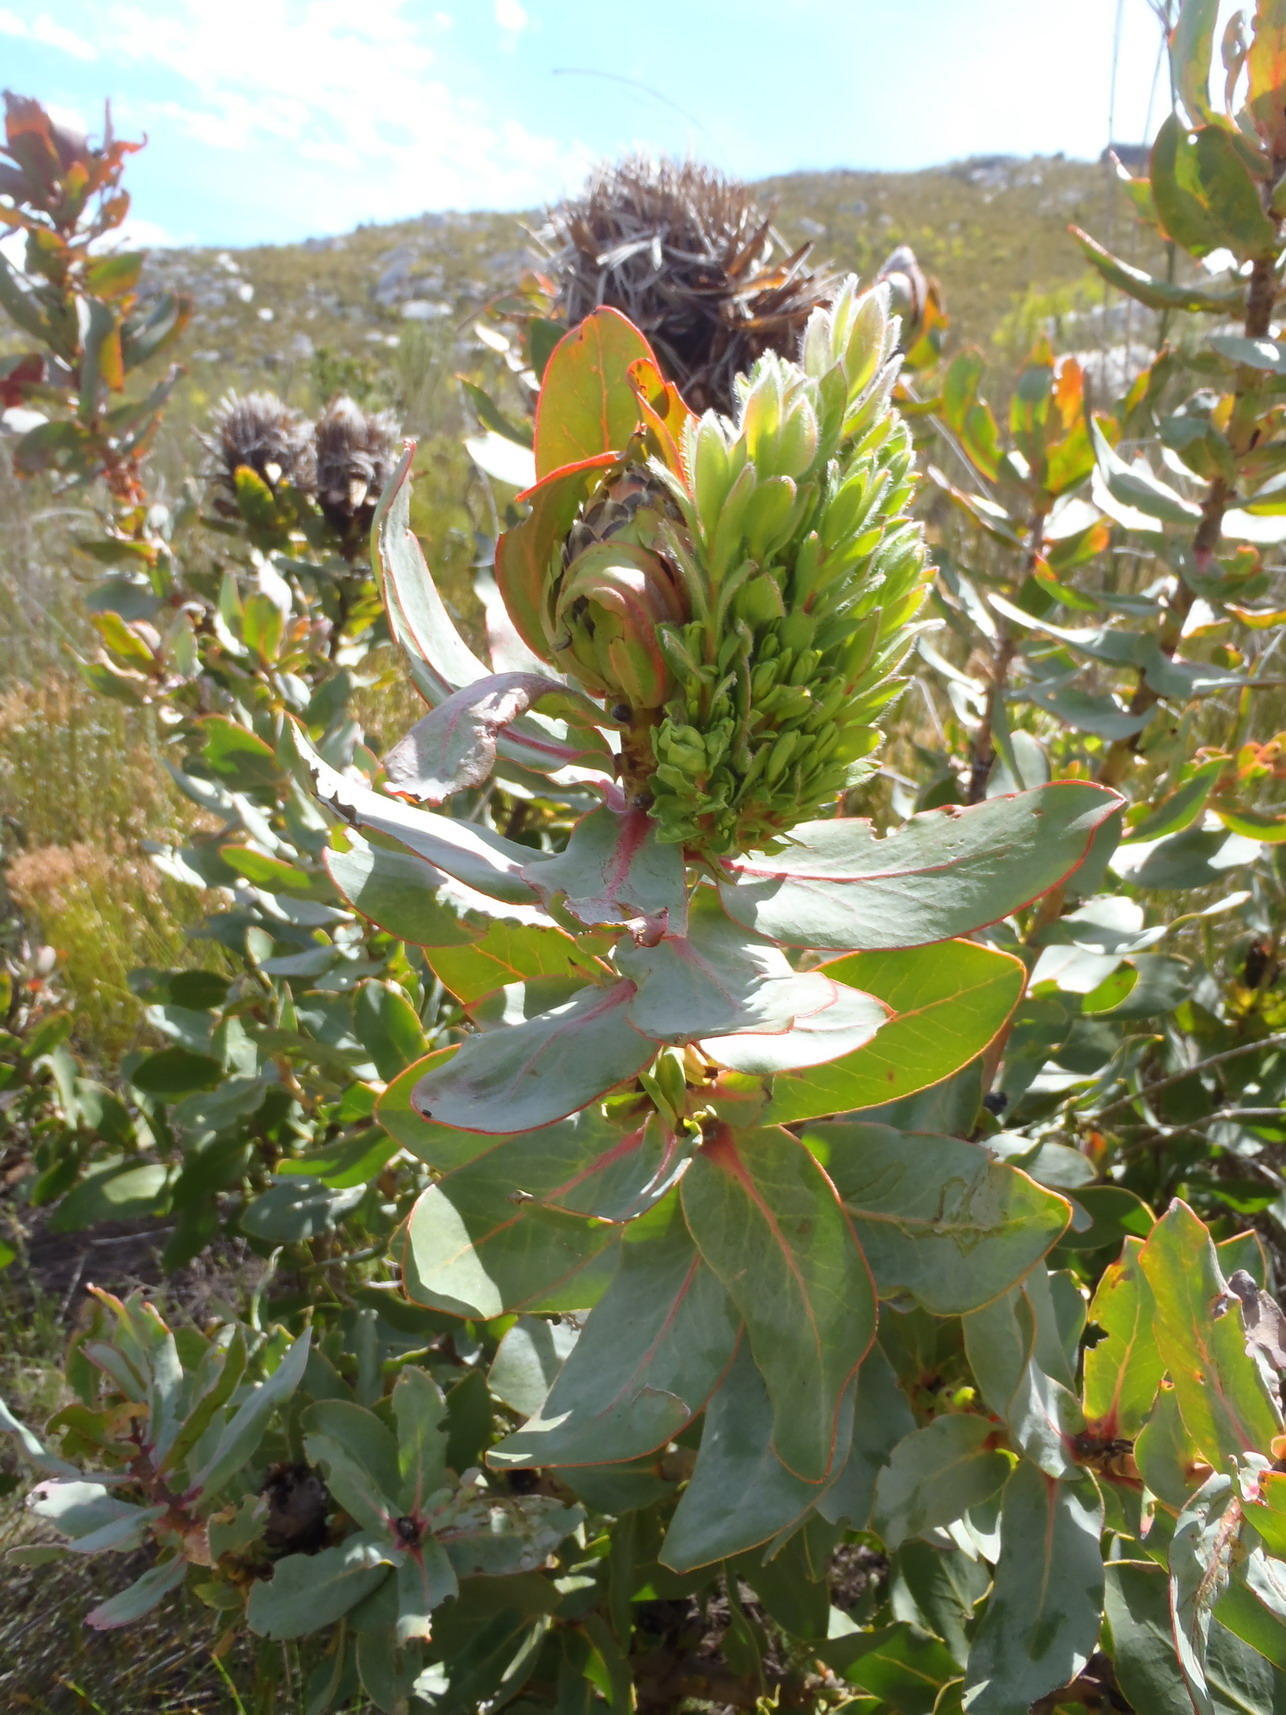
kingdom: Bacteria
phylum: Firmicutes
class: Bacilli
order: Acholeplasmatales
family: Acholeplasmataceae
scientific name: Acholeplasmataceae
